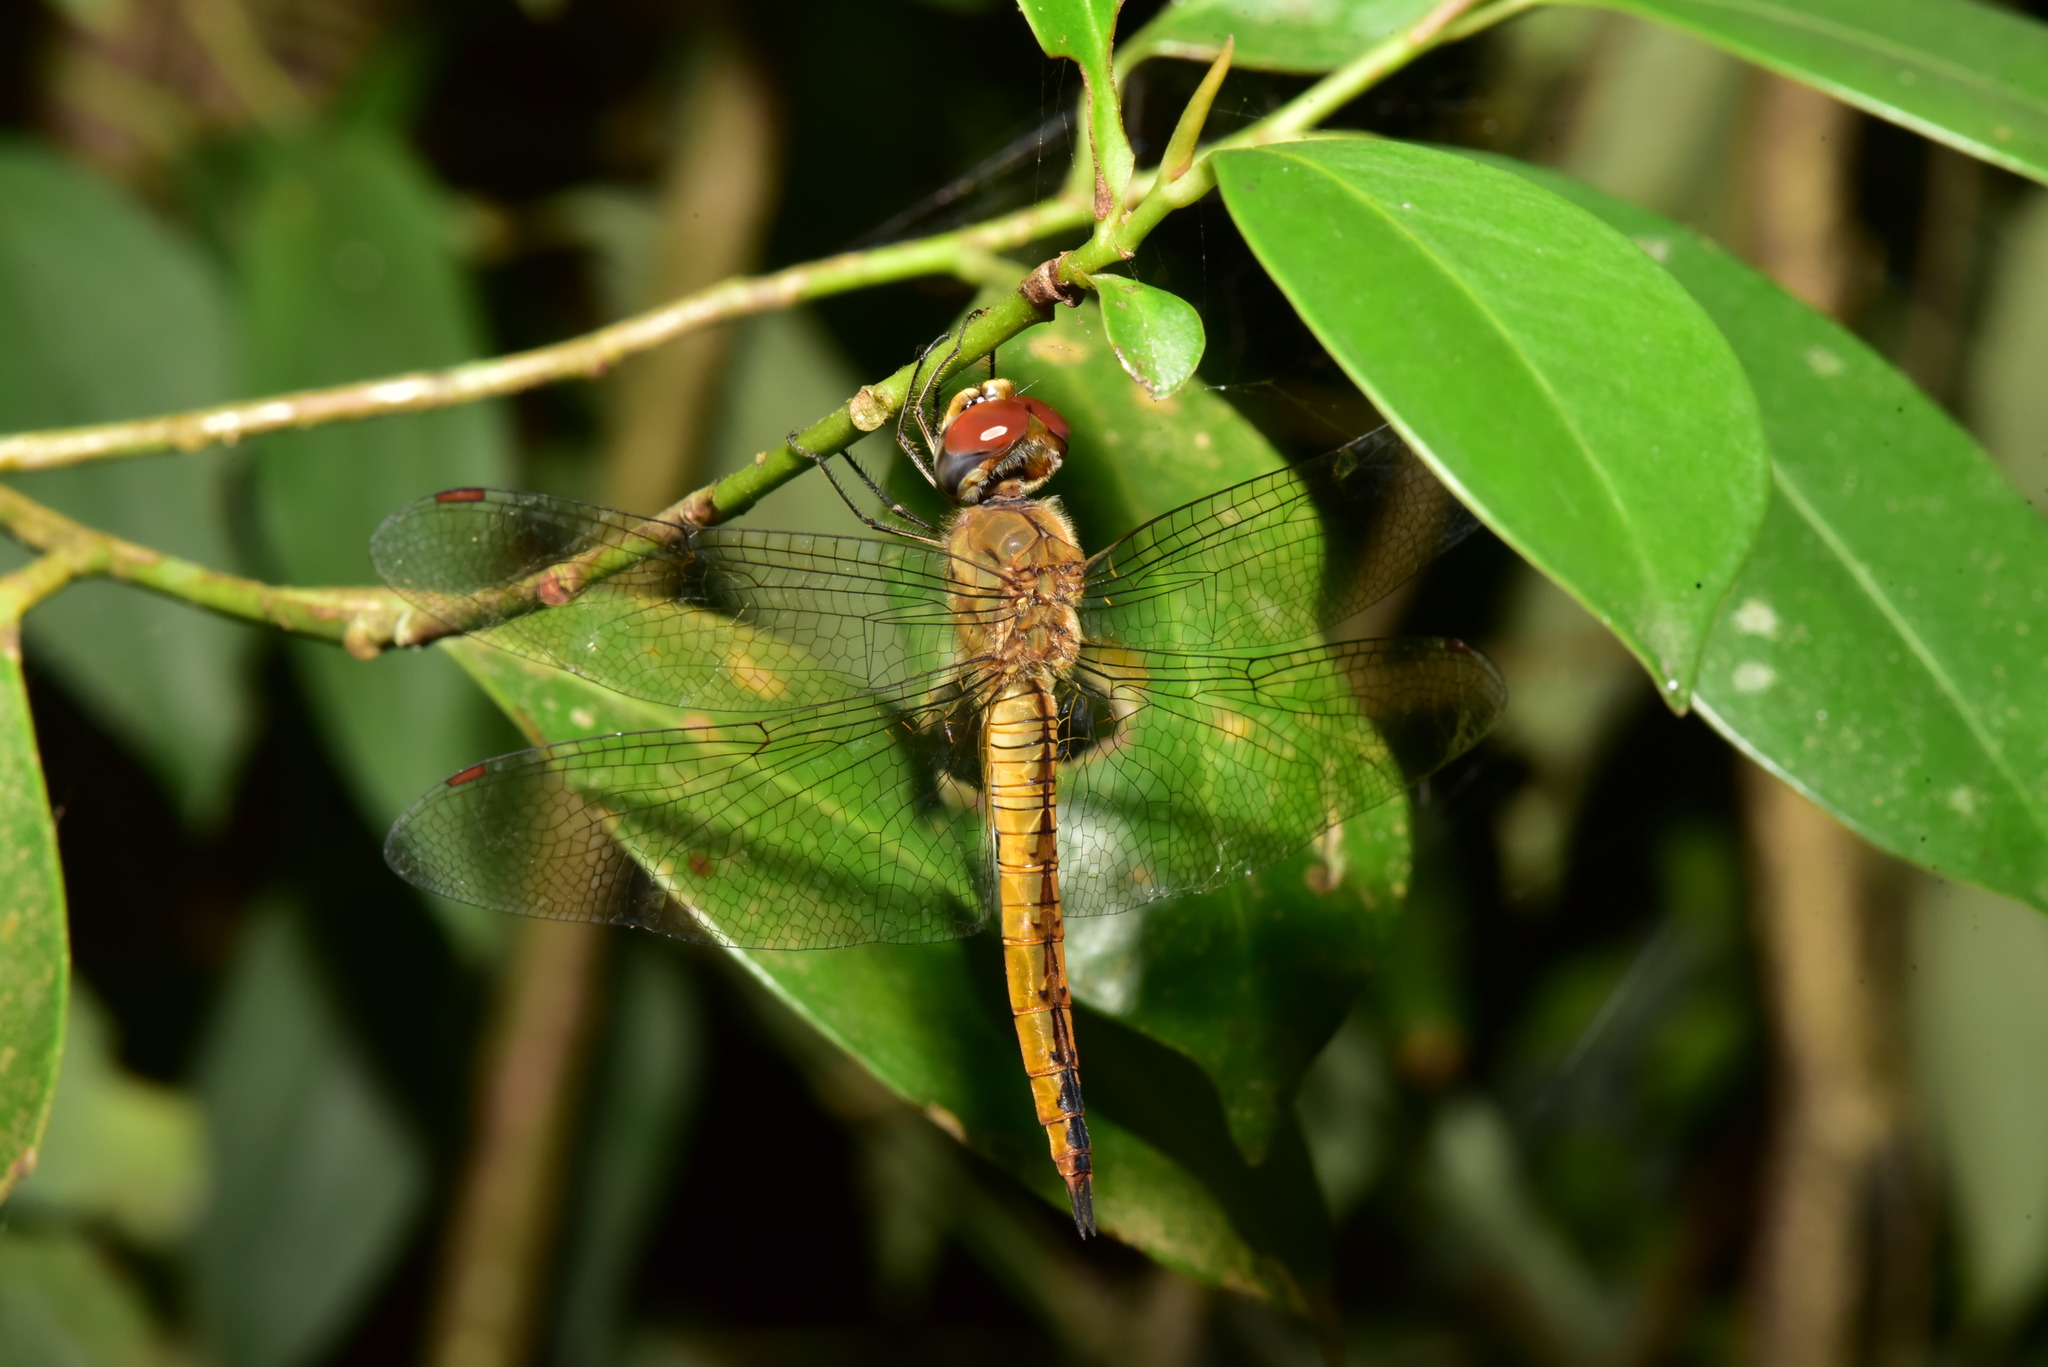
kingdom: Animalia
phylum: Arthropoda
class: Insecta
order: Odonata
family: Libellulidae
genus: Pantala
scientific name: Pantala flavescens
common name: Wandering glider
